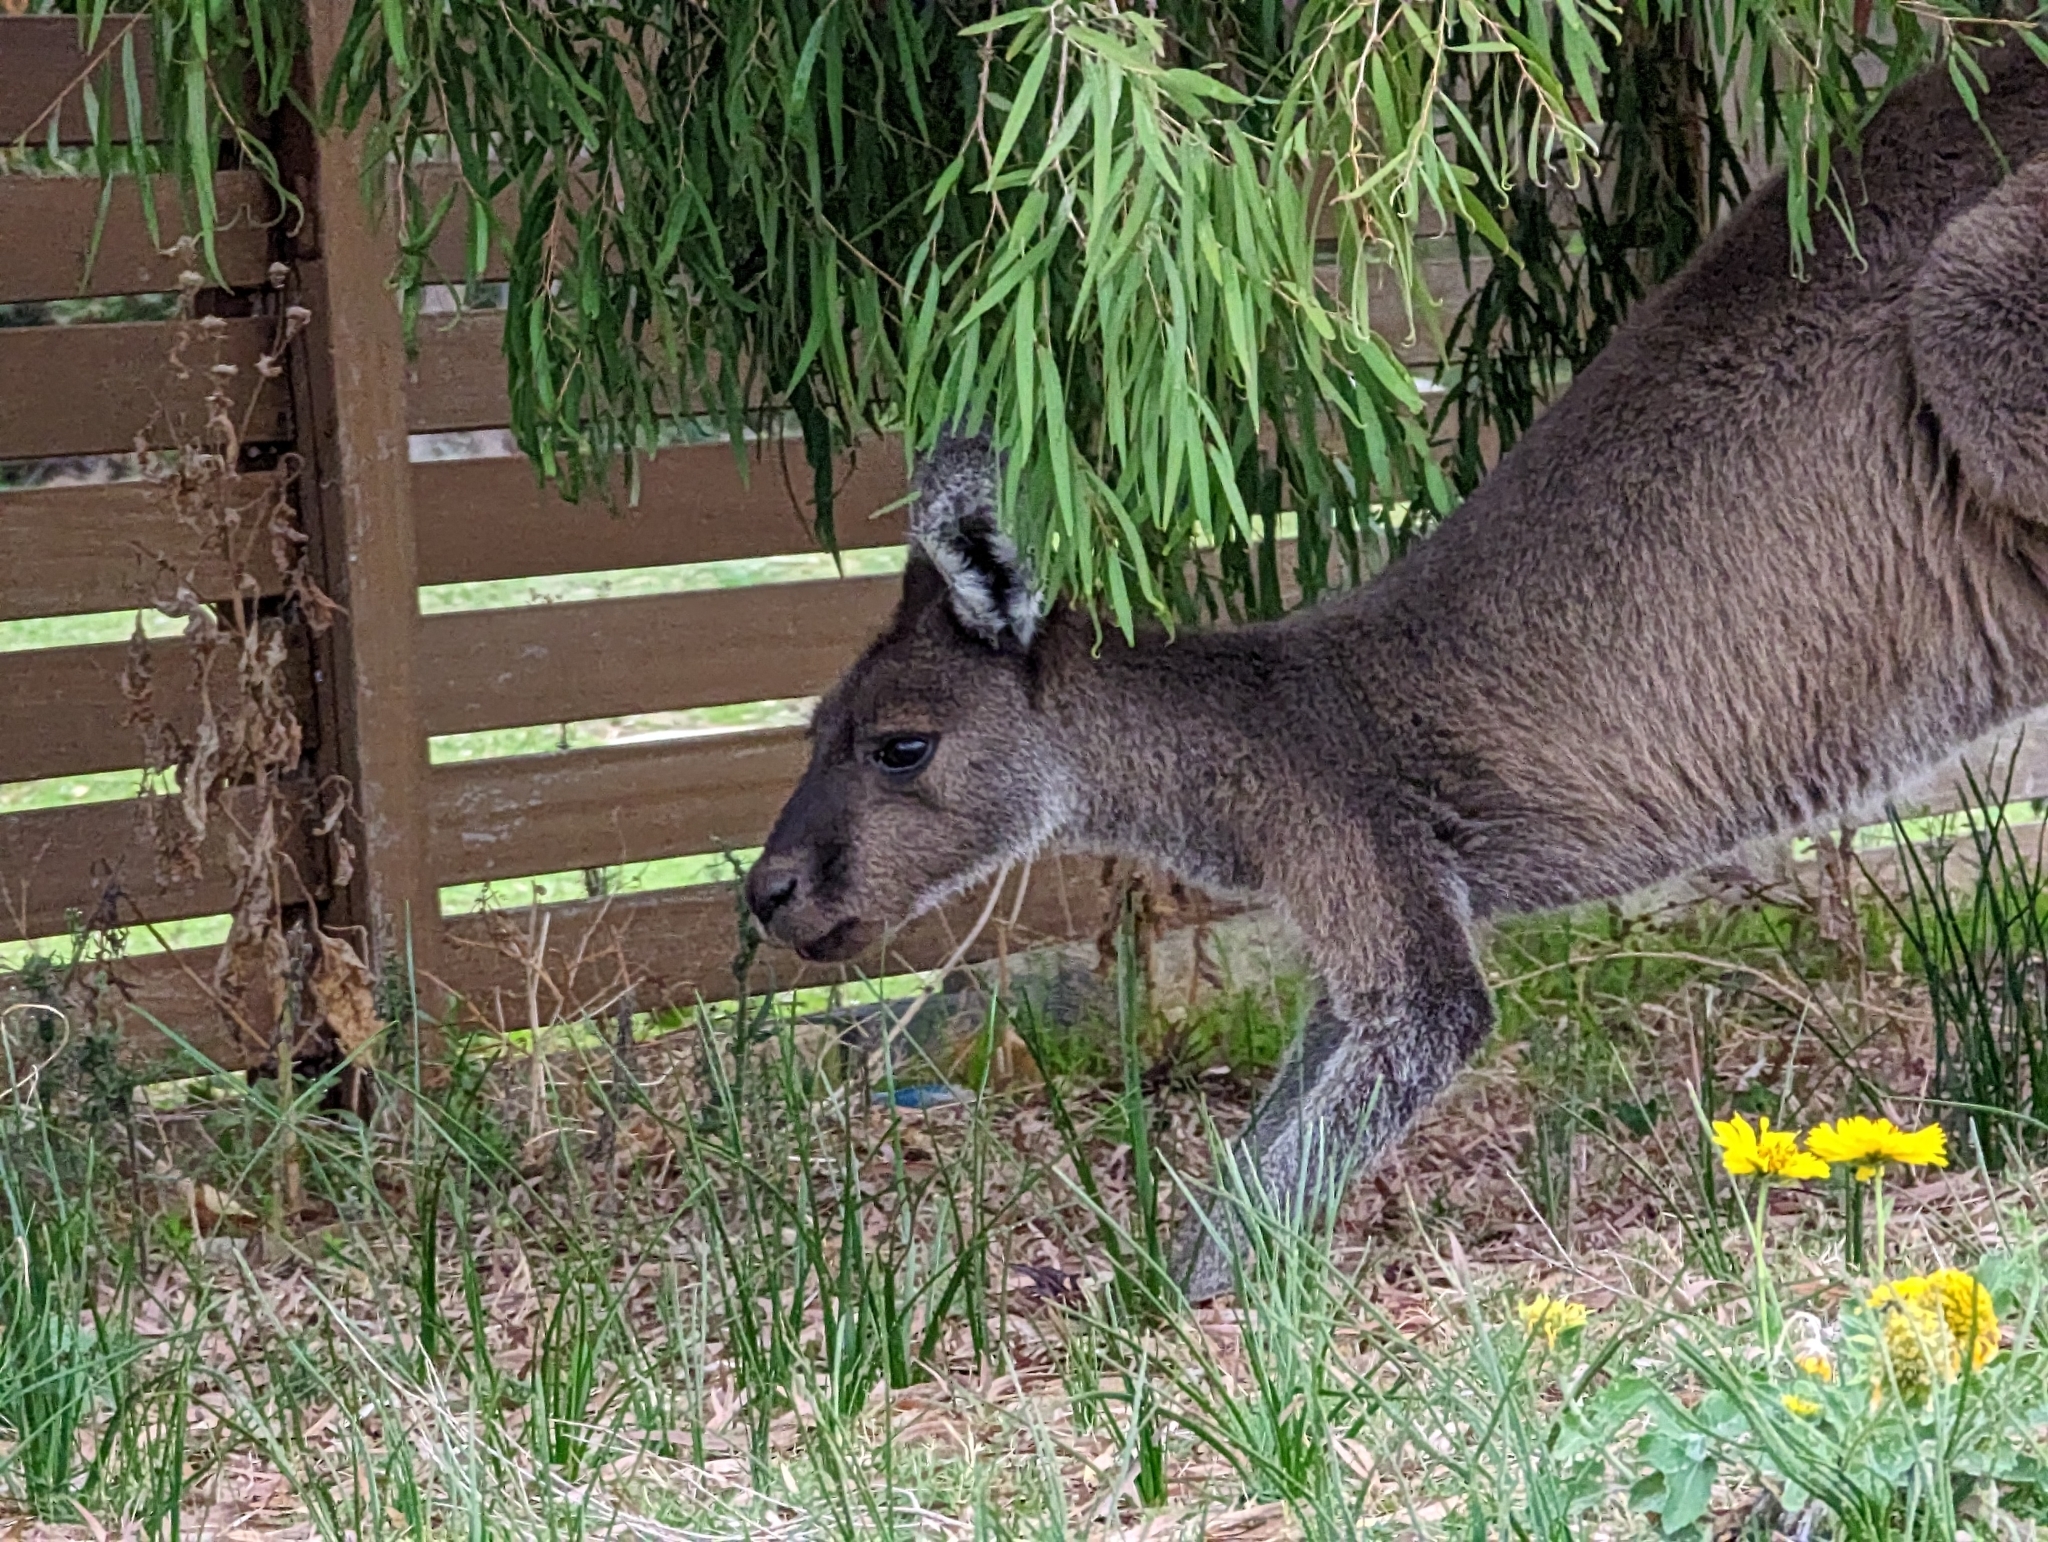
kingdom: Animalia
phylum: Chordata
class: Mammalia
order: Diprotodontia
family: Macropodidae
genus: Macropus
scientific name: Macropus fuliginosus
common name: Western grey kangaroo
